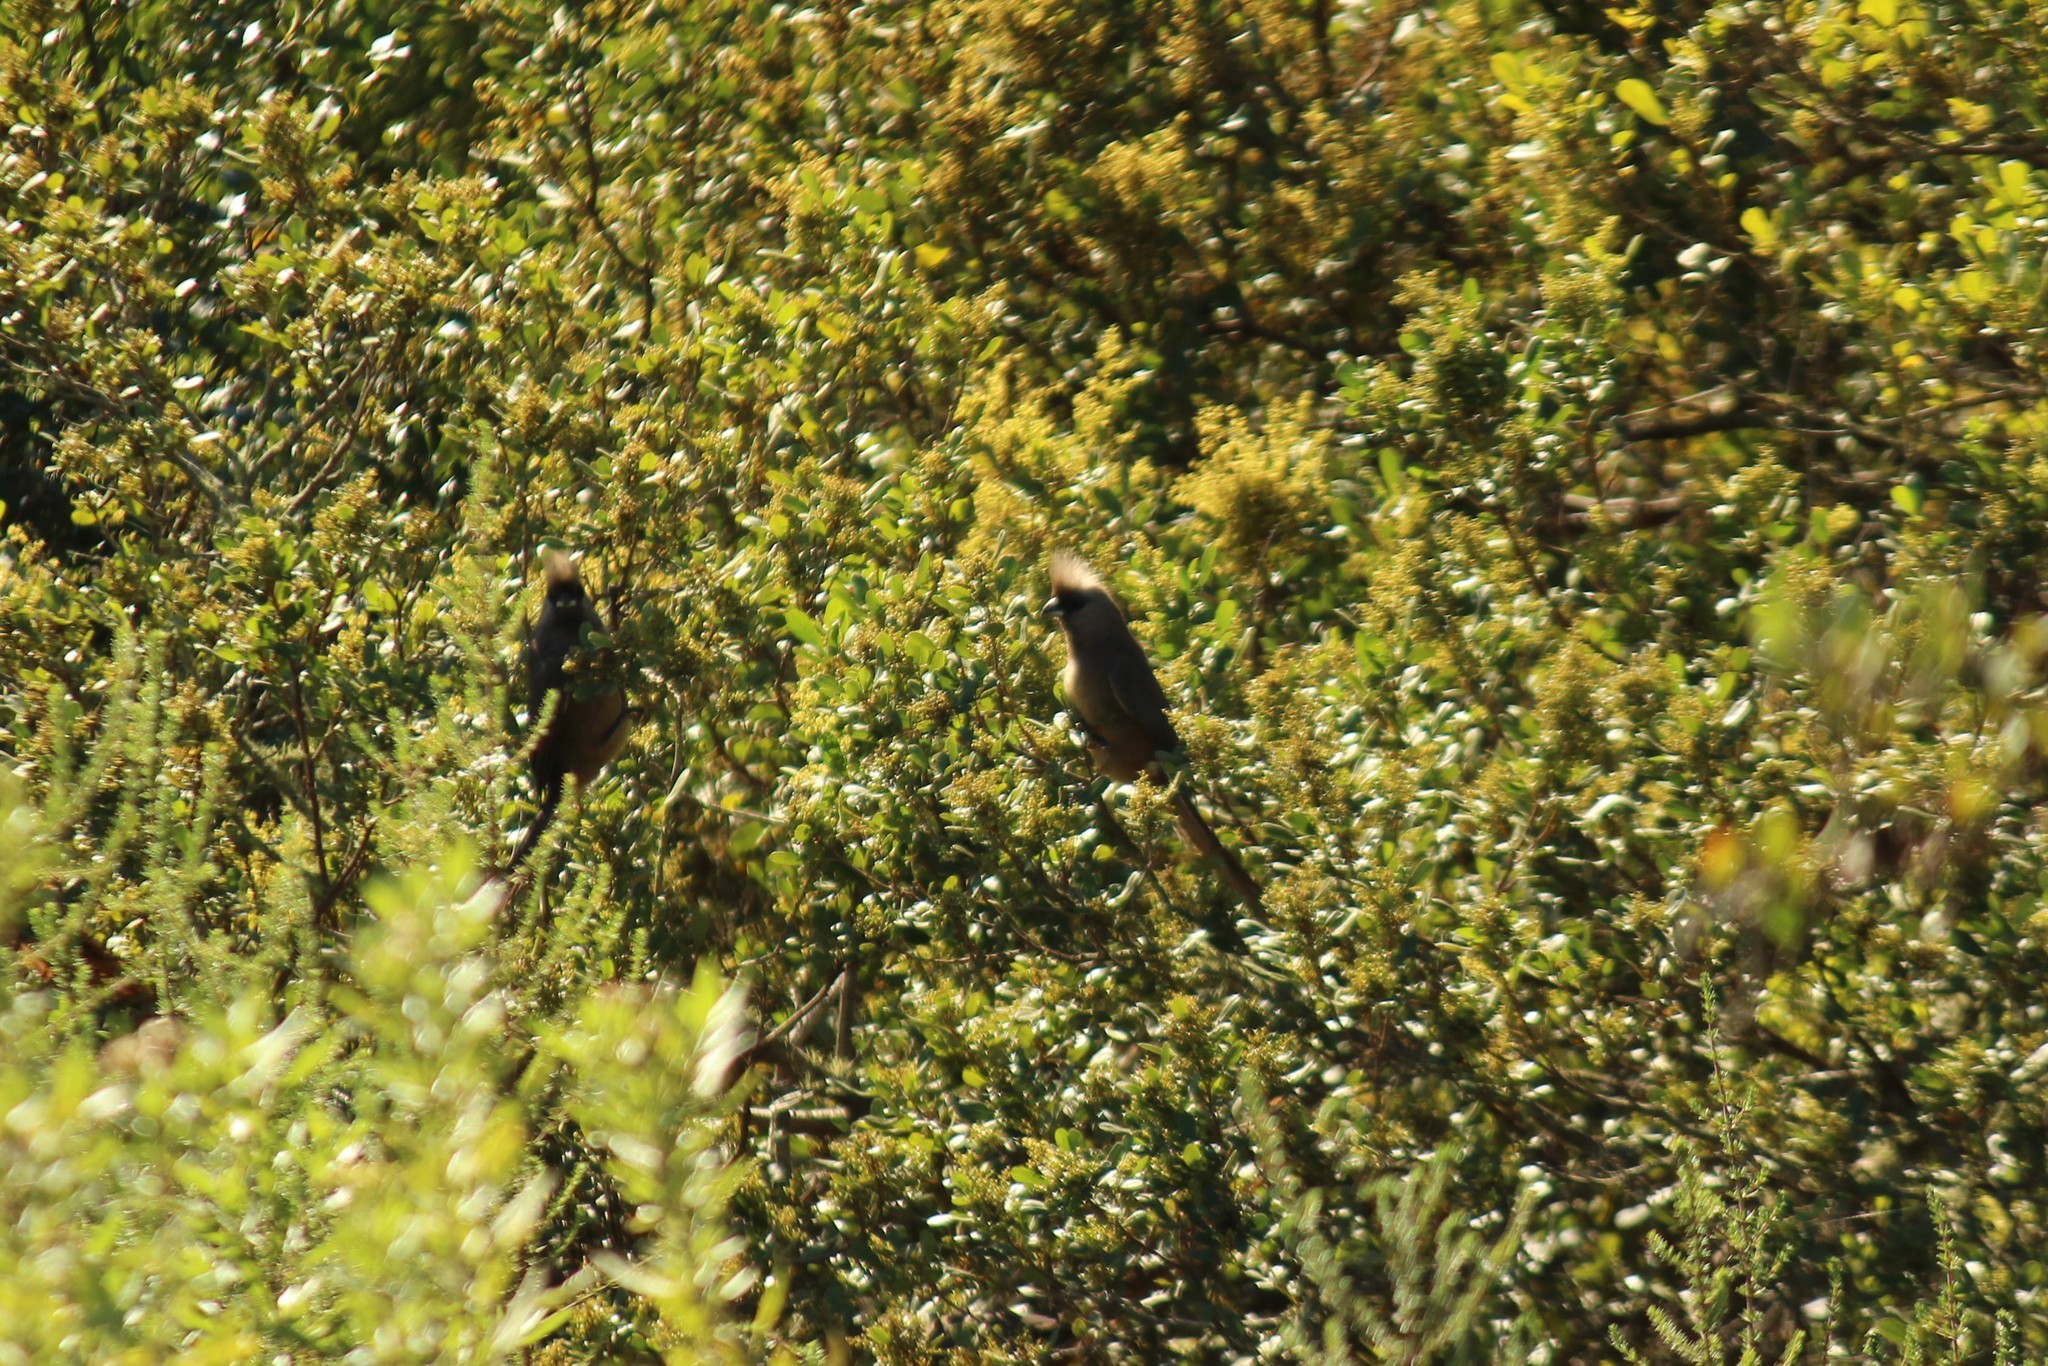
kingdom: Animalia
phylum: Chordata
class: Aves
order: Coliiformes
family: Coliidae
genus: Colius
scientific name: Colius striatus
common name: Speckled mousebird
